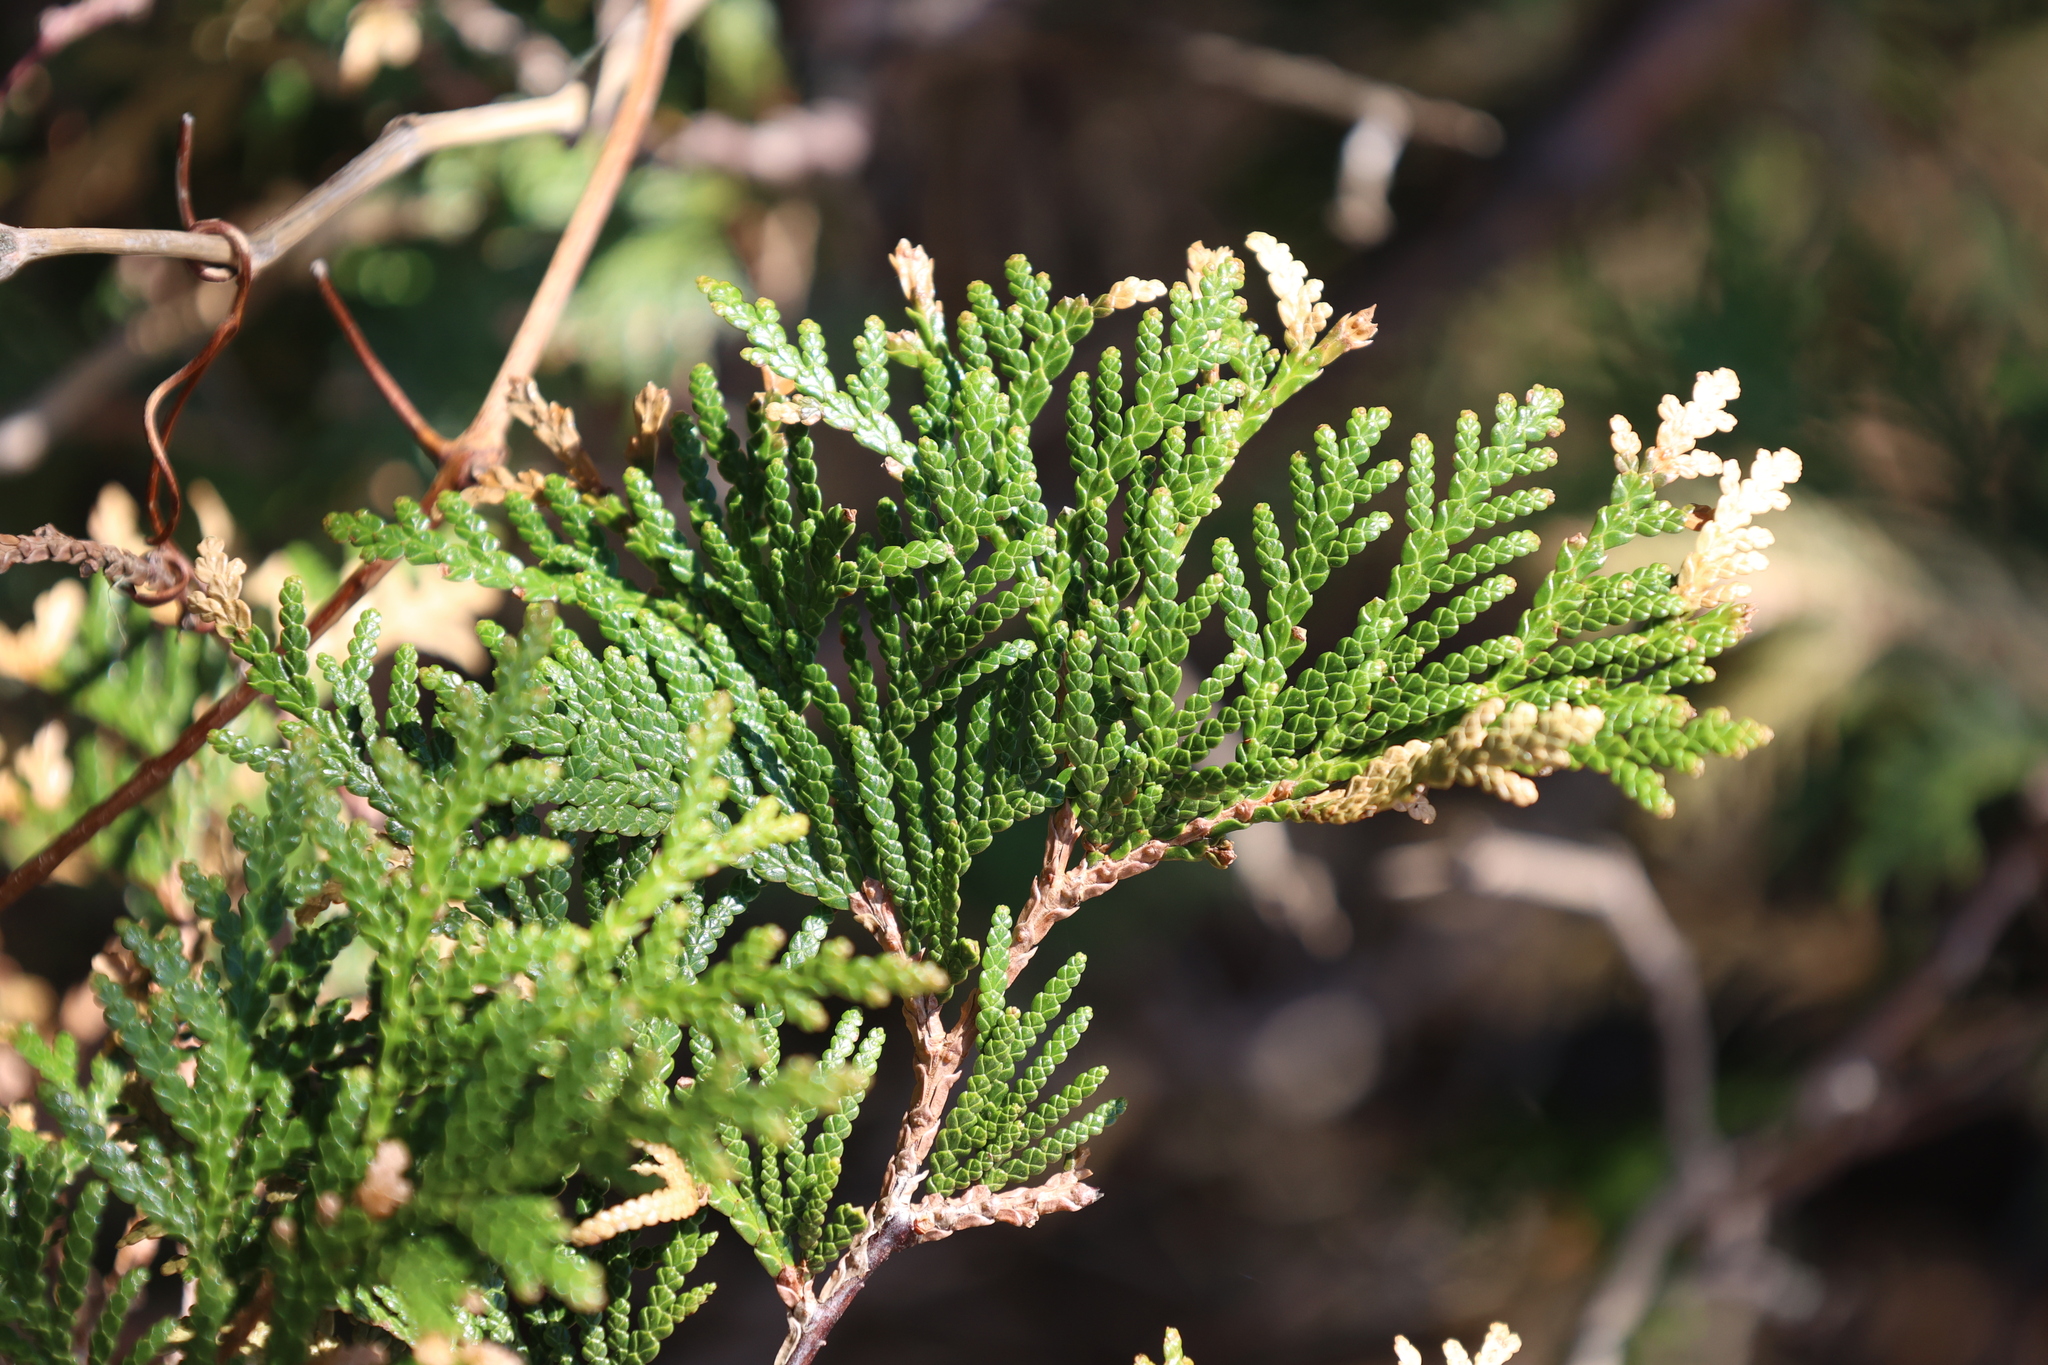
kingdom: Plantae
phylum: Tracheophyta
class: Pinopsida
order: Pinales
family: Cupressaceae
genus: Thuja
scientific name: Thuja occidentalis
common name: Northern white-cedar
